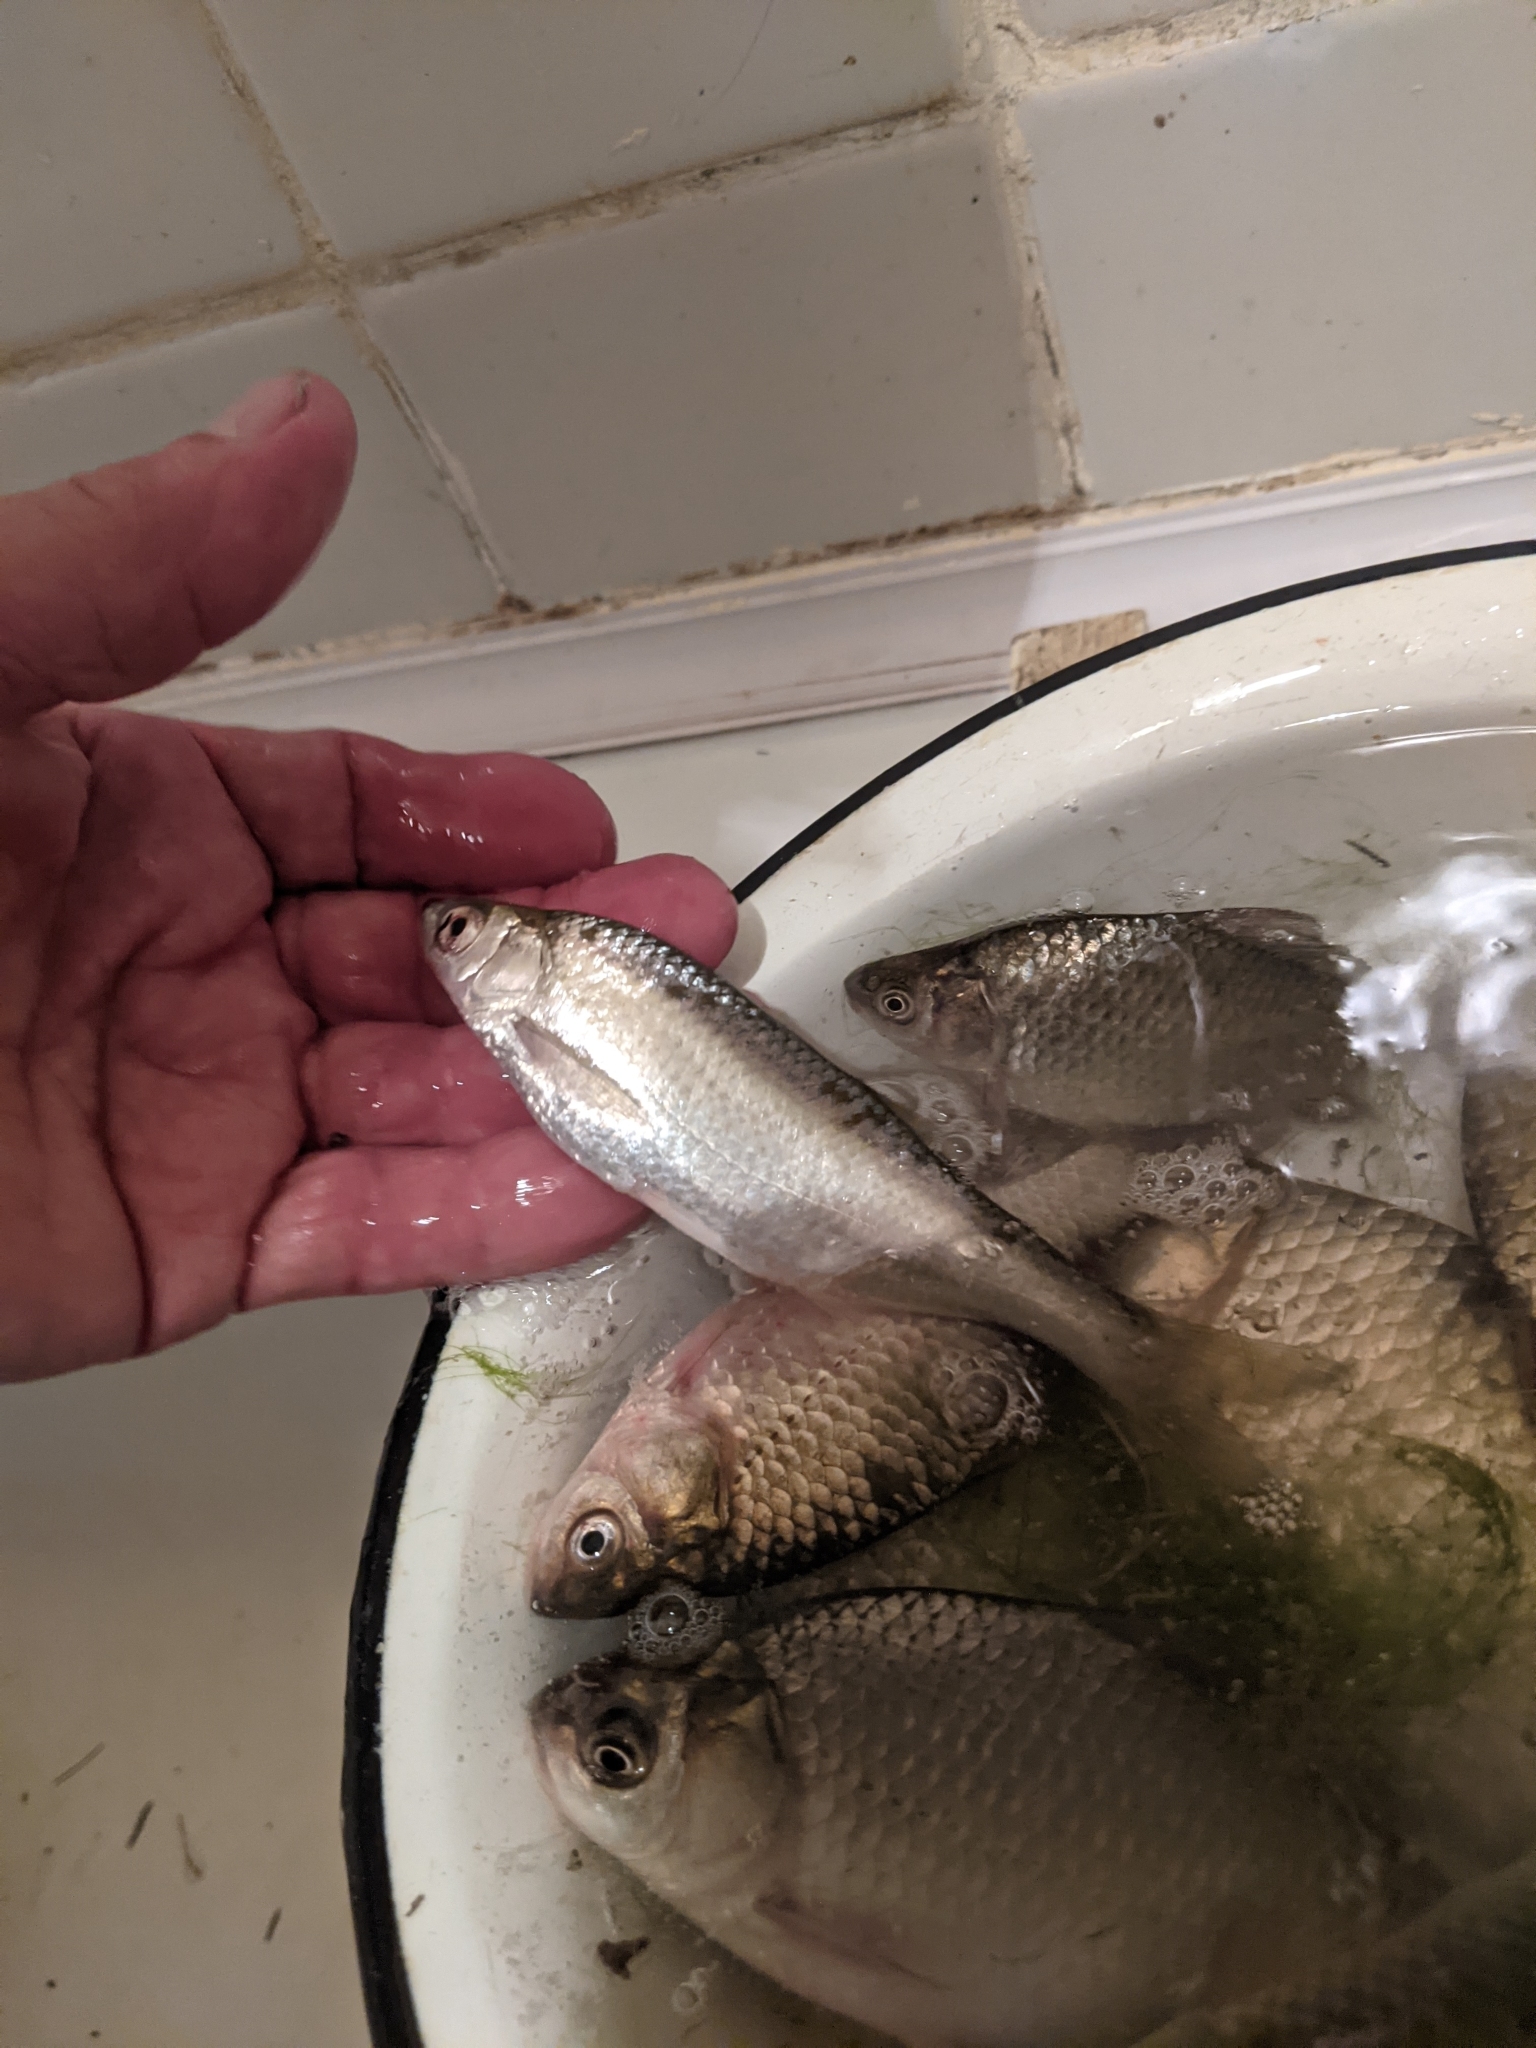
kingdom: Animalia
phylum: Chordata
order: Cypriniformes
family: Cyprinidae
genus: Alburnus
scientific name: Alburnus alburnus
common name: Bleak
